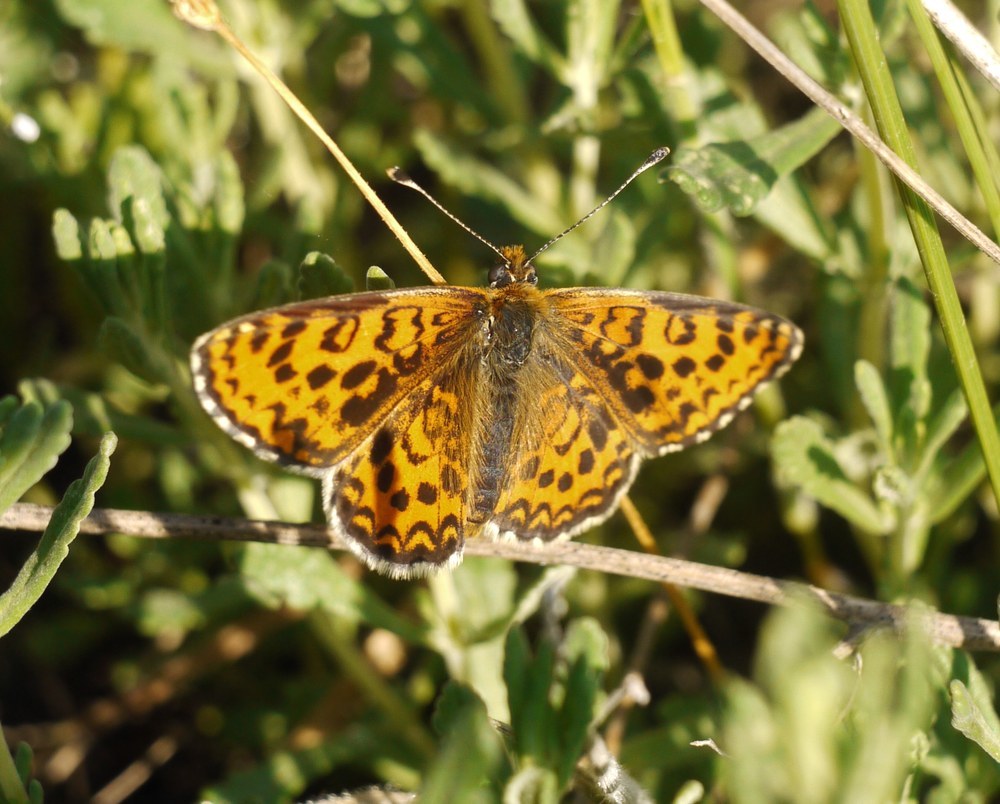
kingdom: Animalia
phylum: Arthropoda
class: Insecta
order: Lepidoptera
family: Nymphalidae
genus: Melitaea
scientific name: Melitaea trivia
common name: Lesser spotted fritillary
